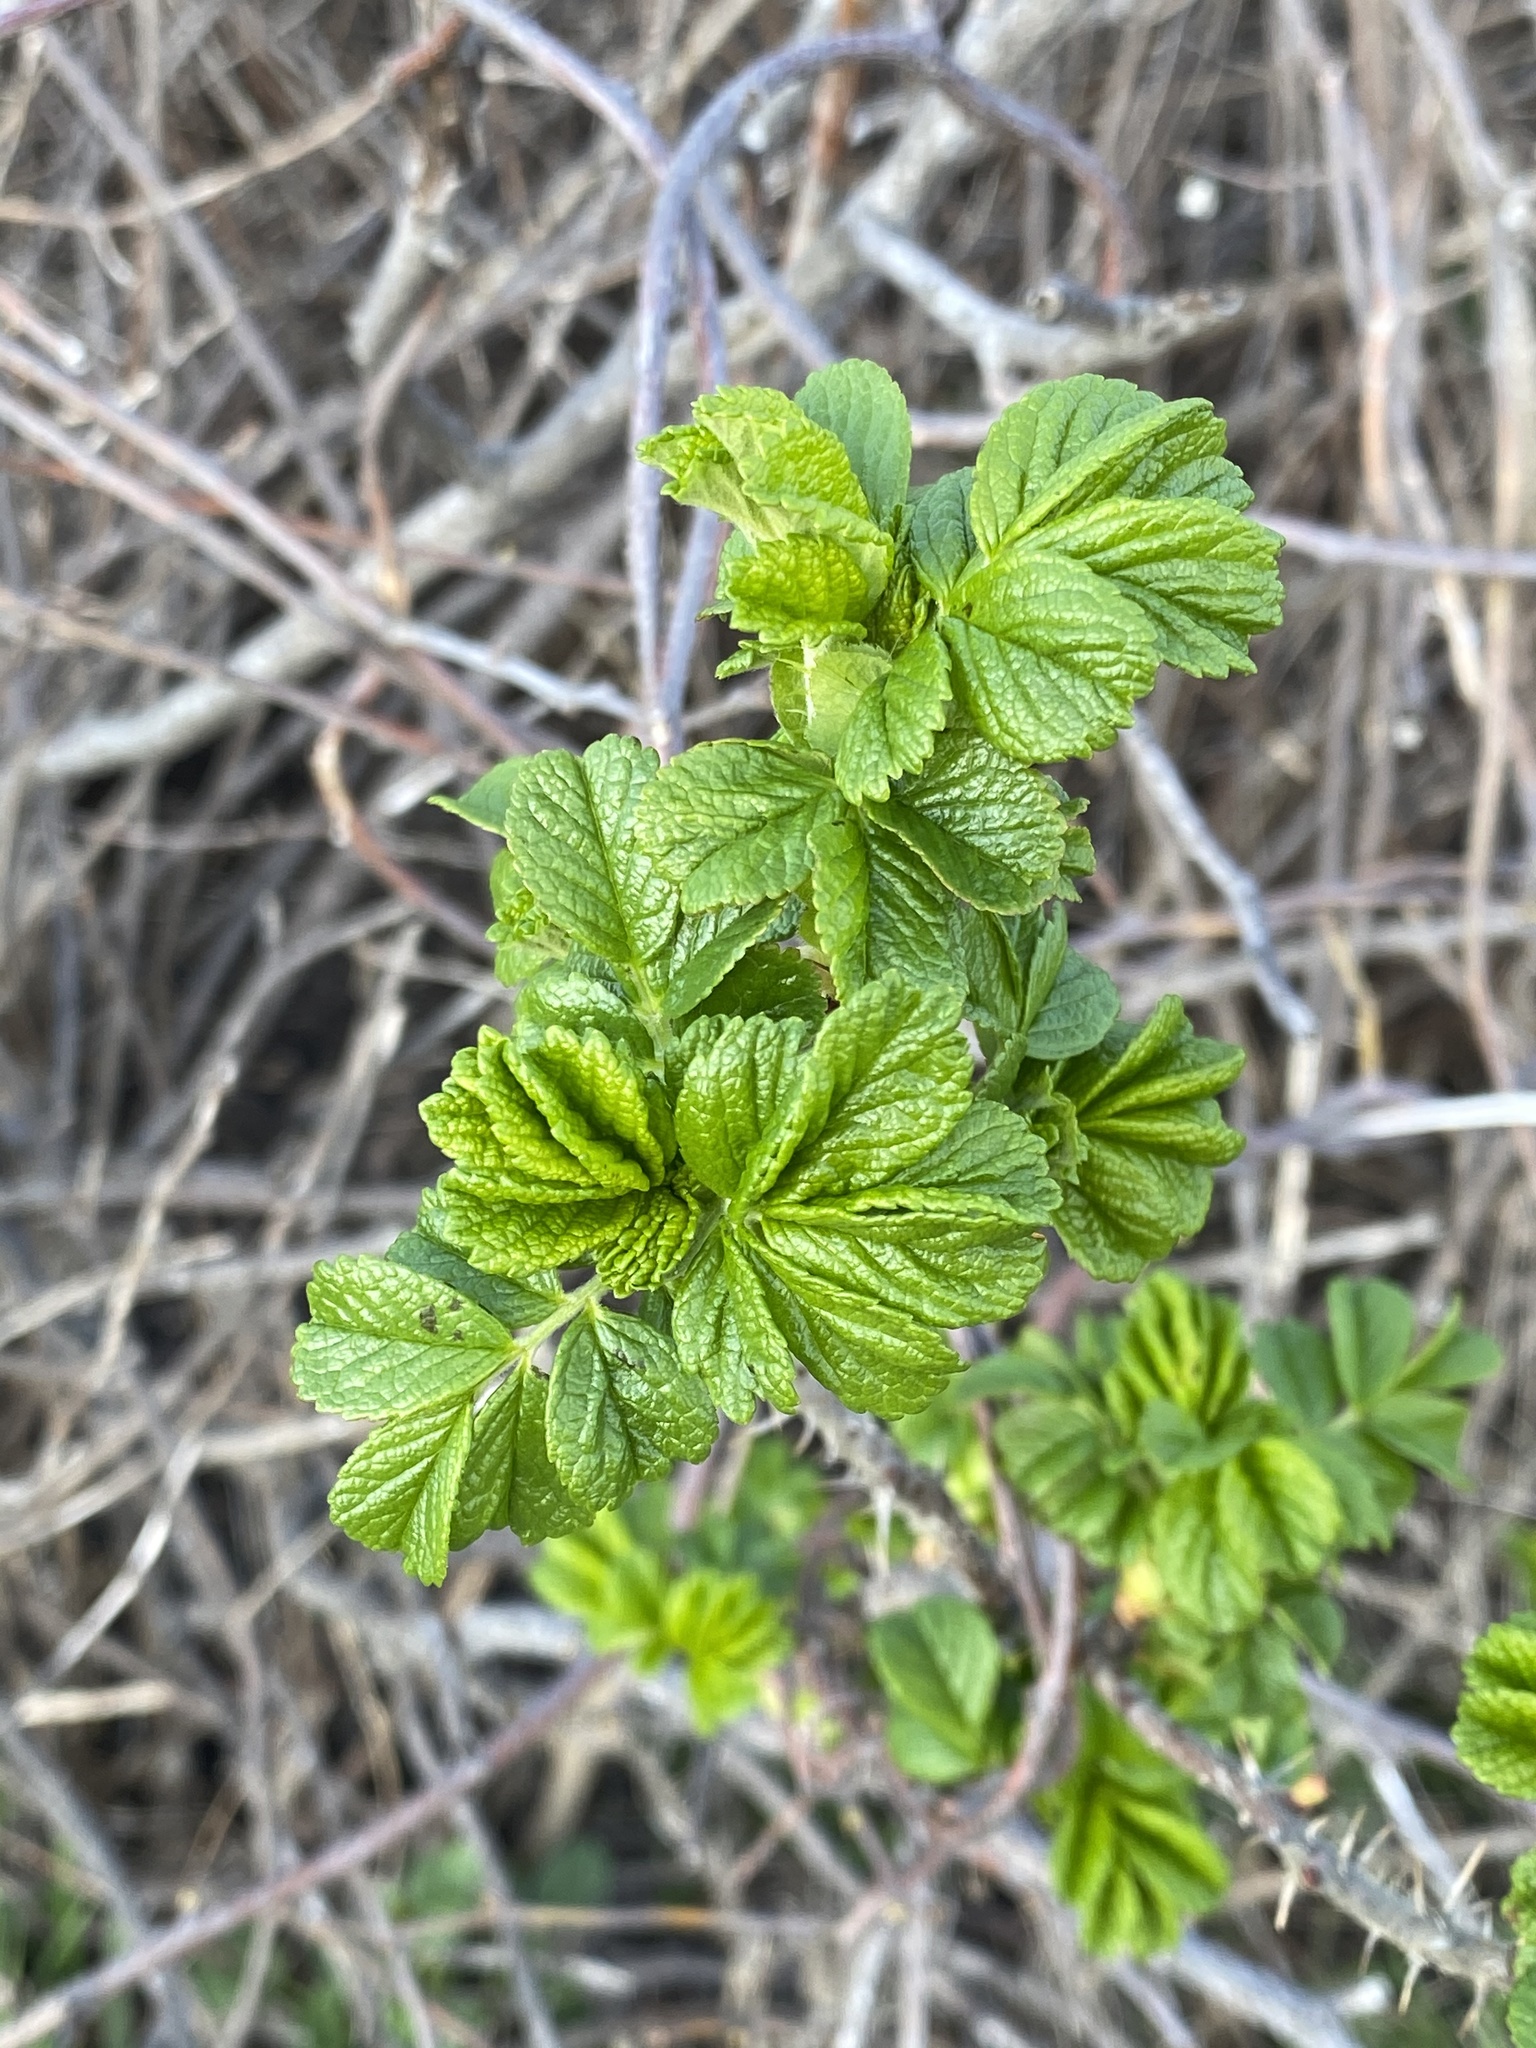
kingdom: Plantae
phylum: Tracheophyta
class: Magnoliopsida
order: Rosales
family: Rosaceae
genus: Rosa
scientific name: Rosa rugosa
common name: Japanese rose
